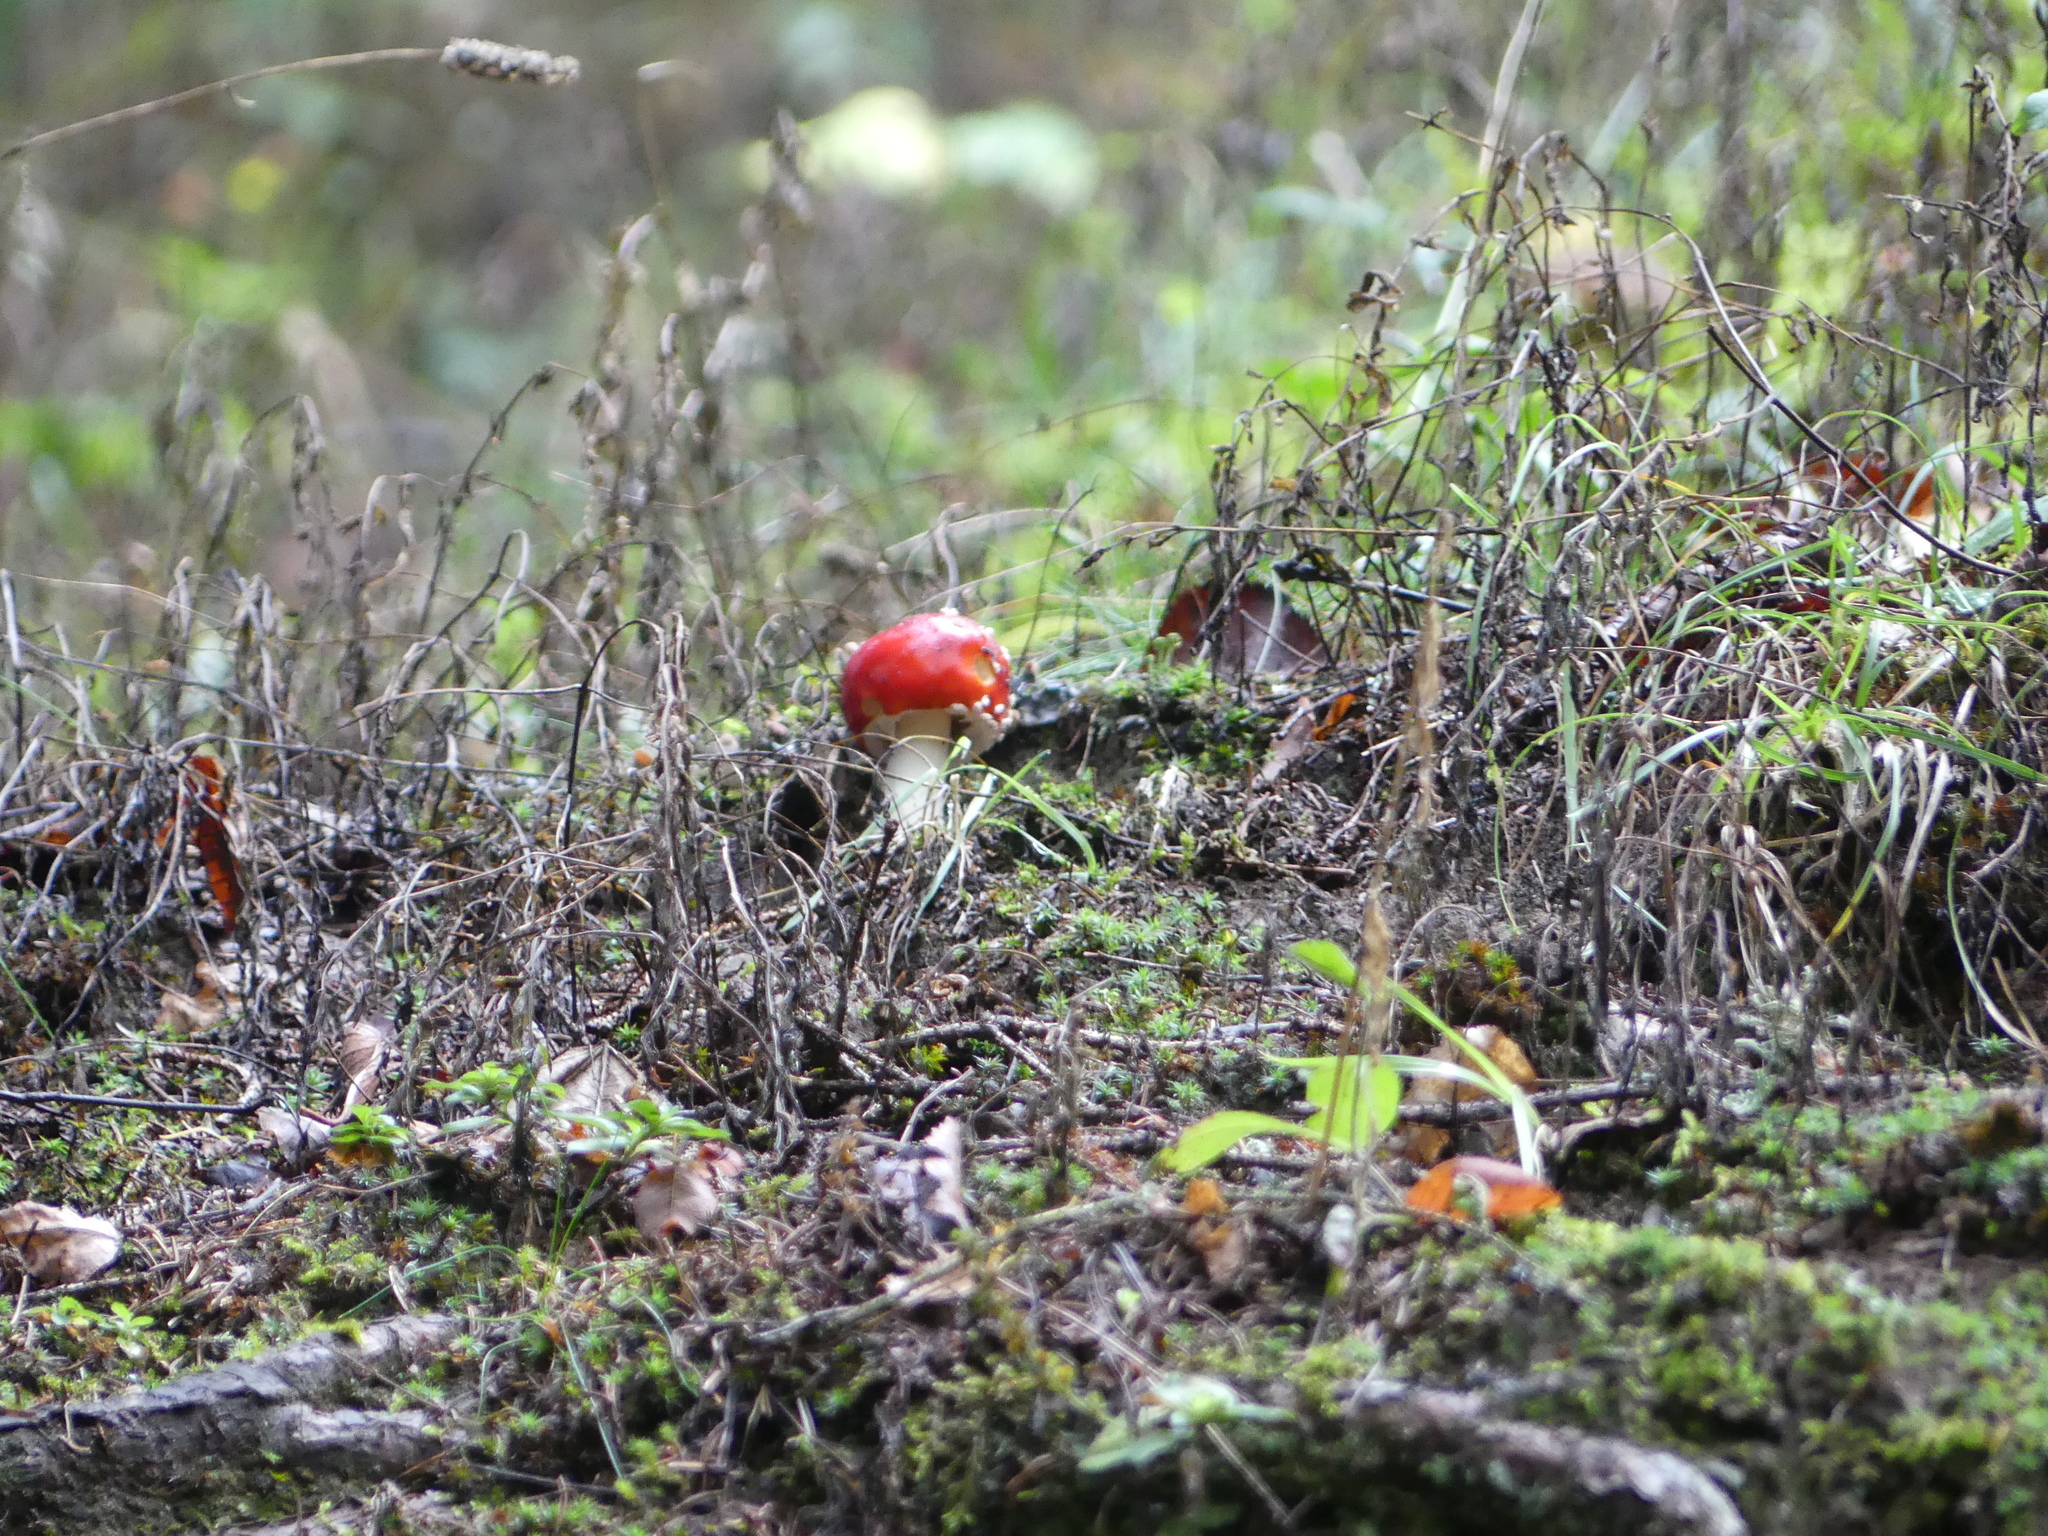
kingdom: Fungi
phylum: Basidiomycota
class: Agaricomycetes
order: Agaricales
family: Amanitaceae
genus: Amanita
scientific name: Amanita muscaria
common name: Fly agaric
